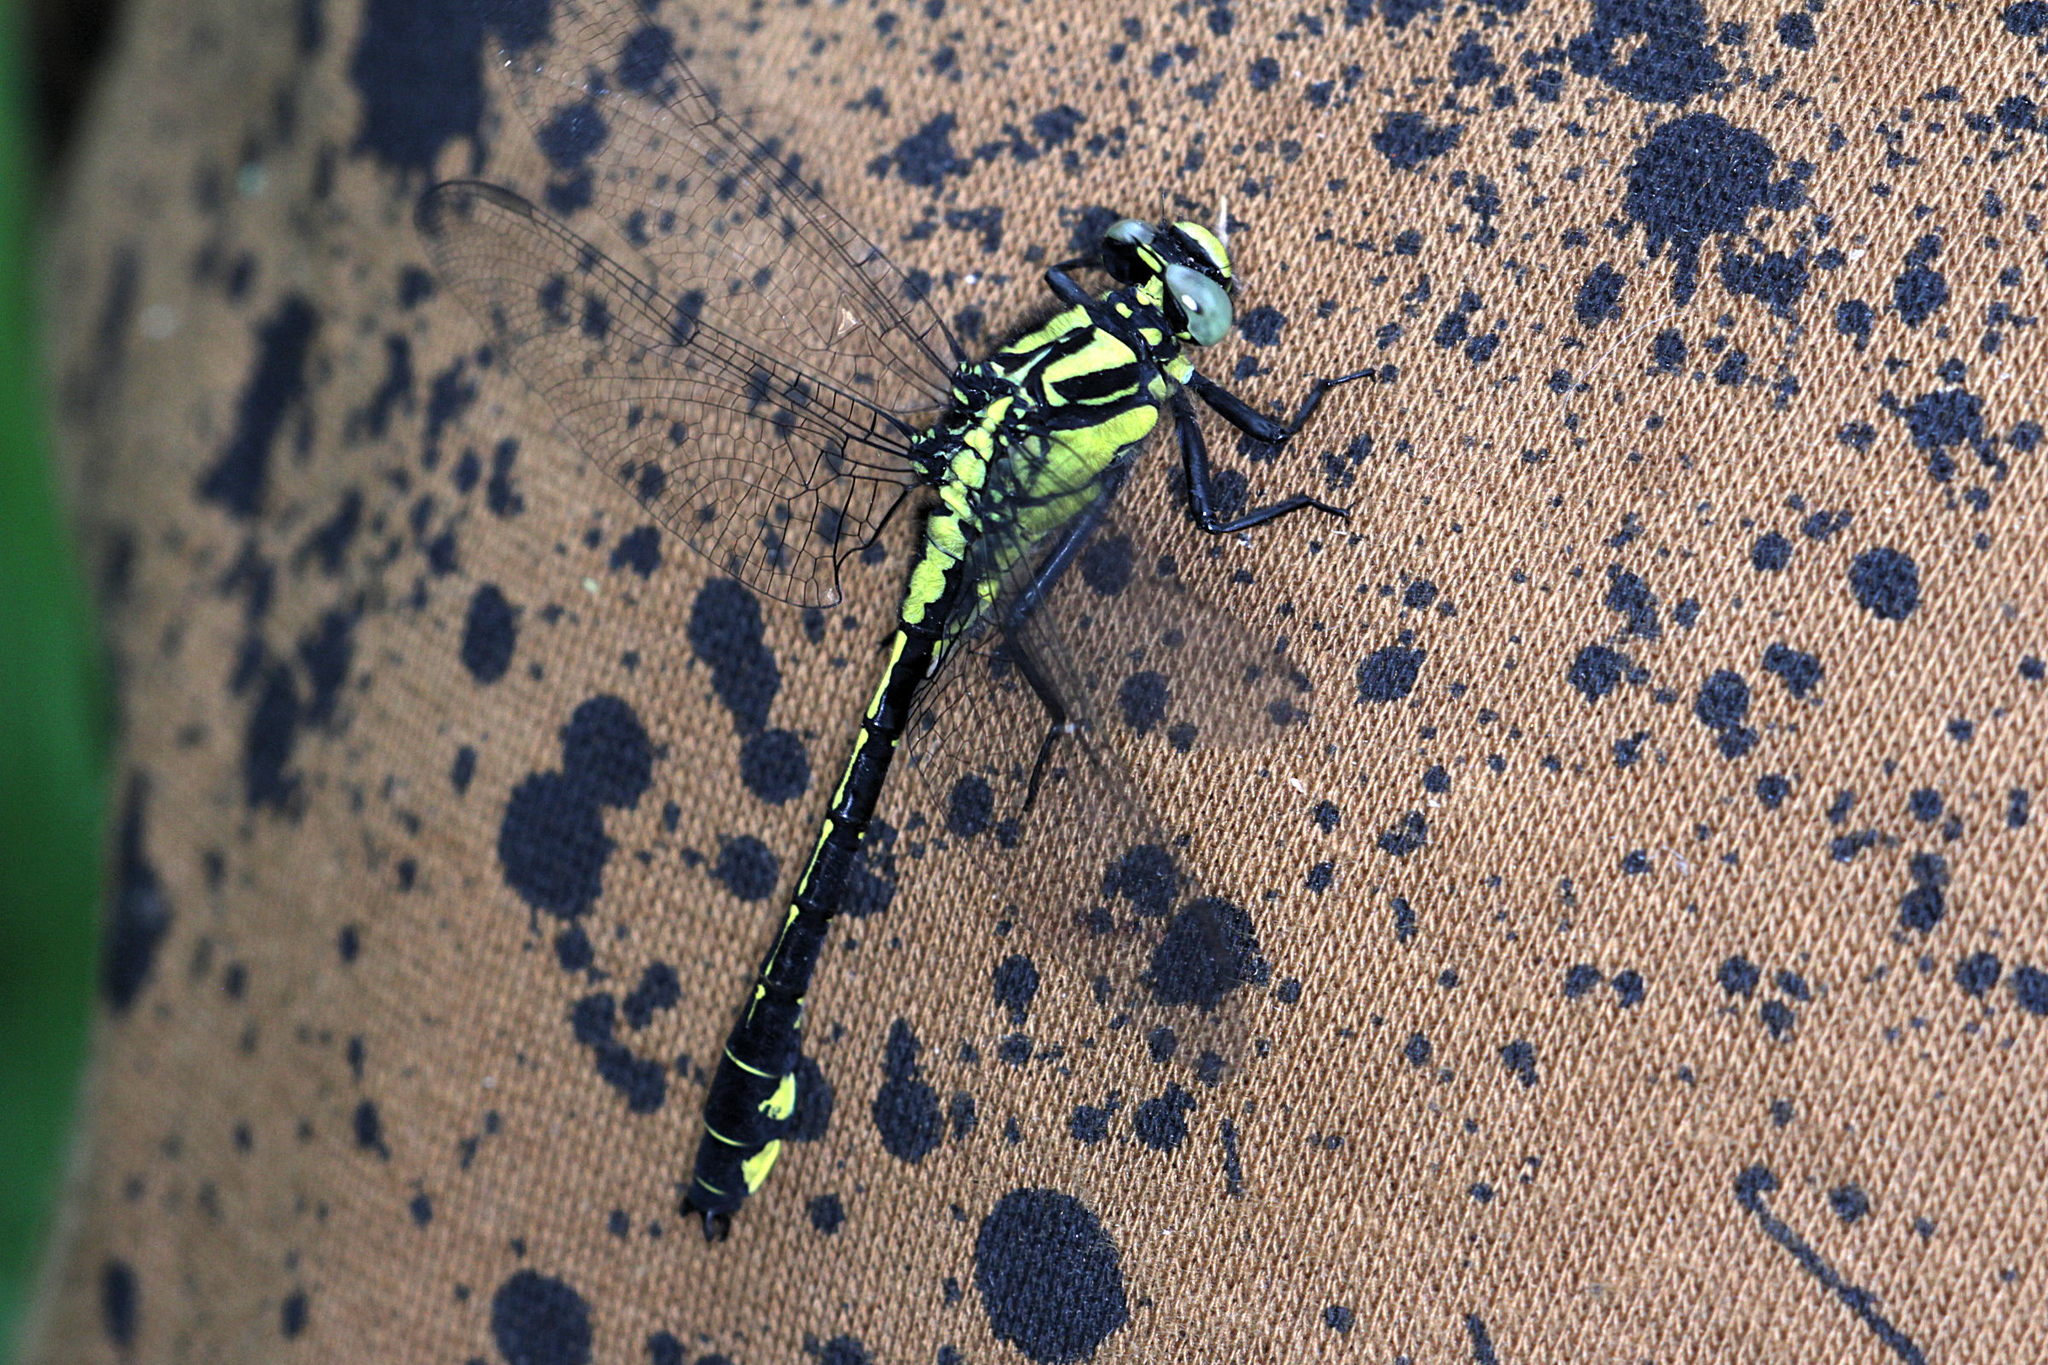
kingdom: Animalia
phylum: Arthropoda
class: Insecta
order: Odonata
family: Gomphidae
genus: Gomphus
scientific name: Gomphus vulgatissimus
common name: Club-tailed dragonfly
